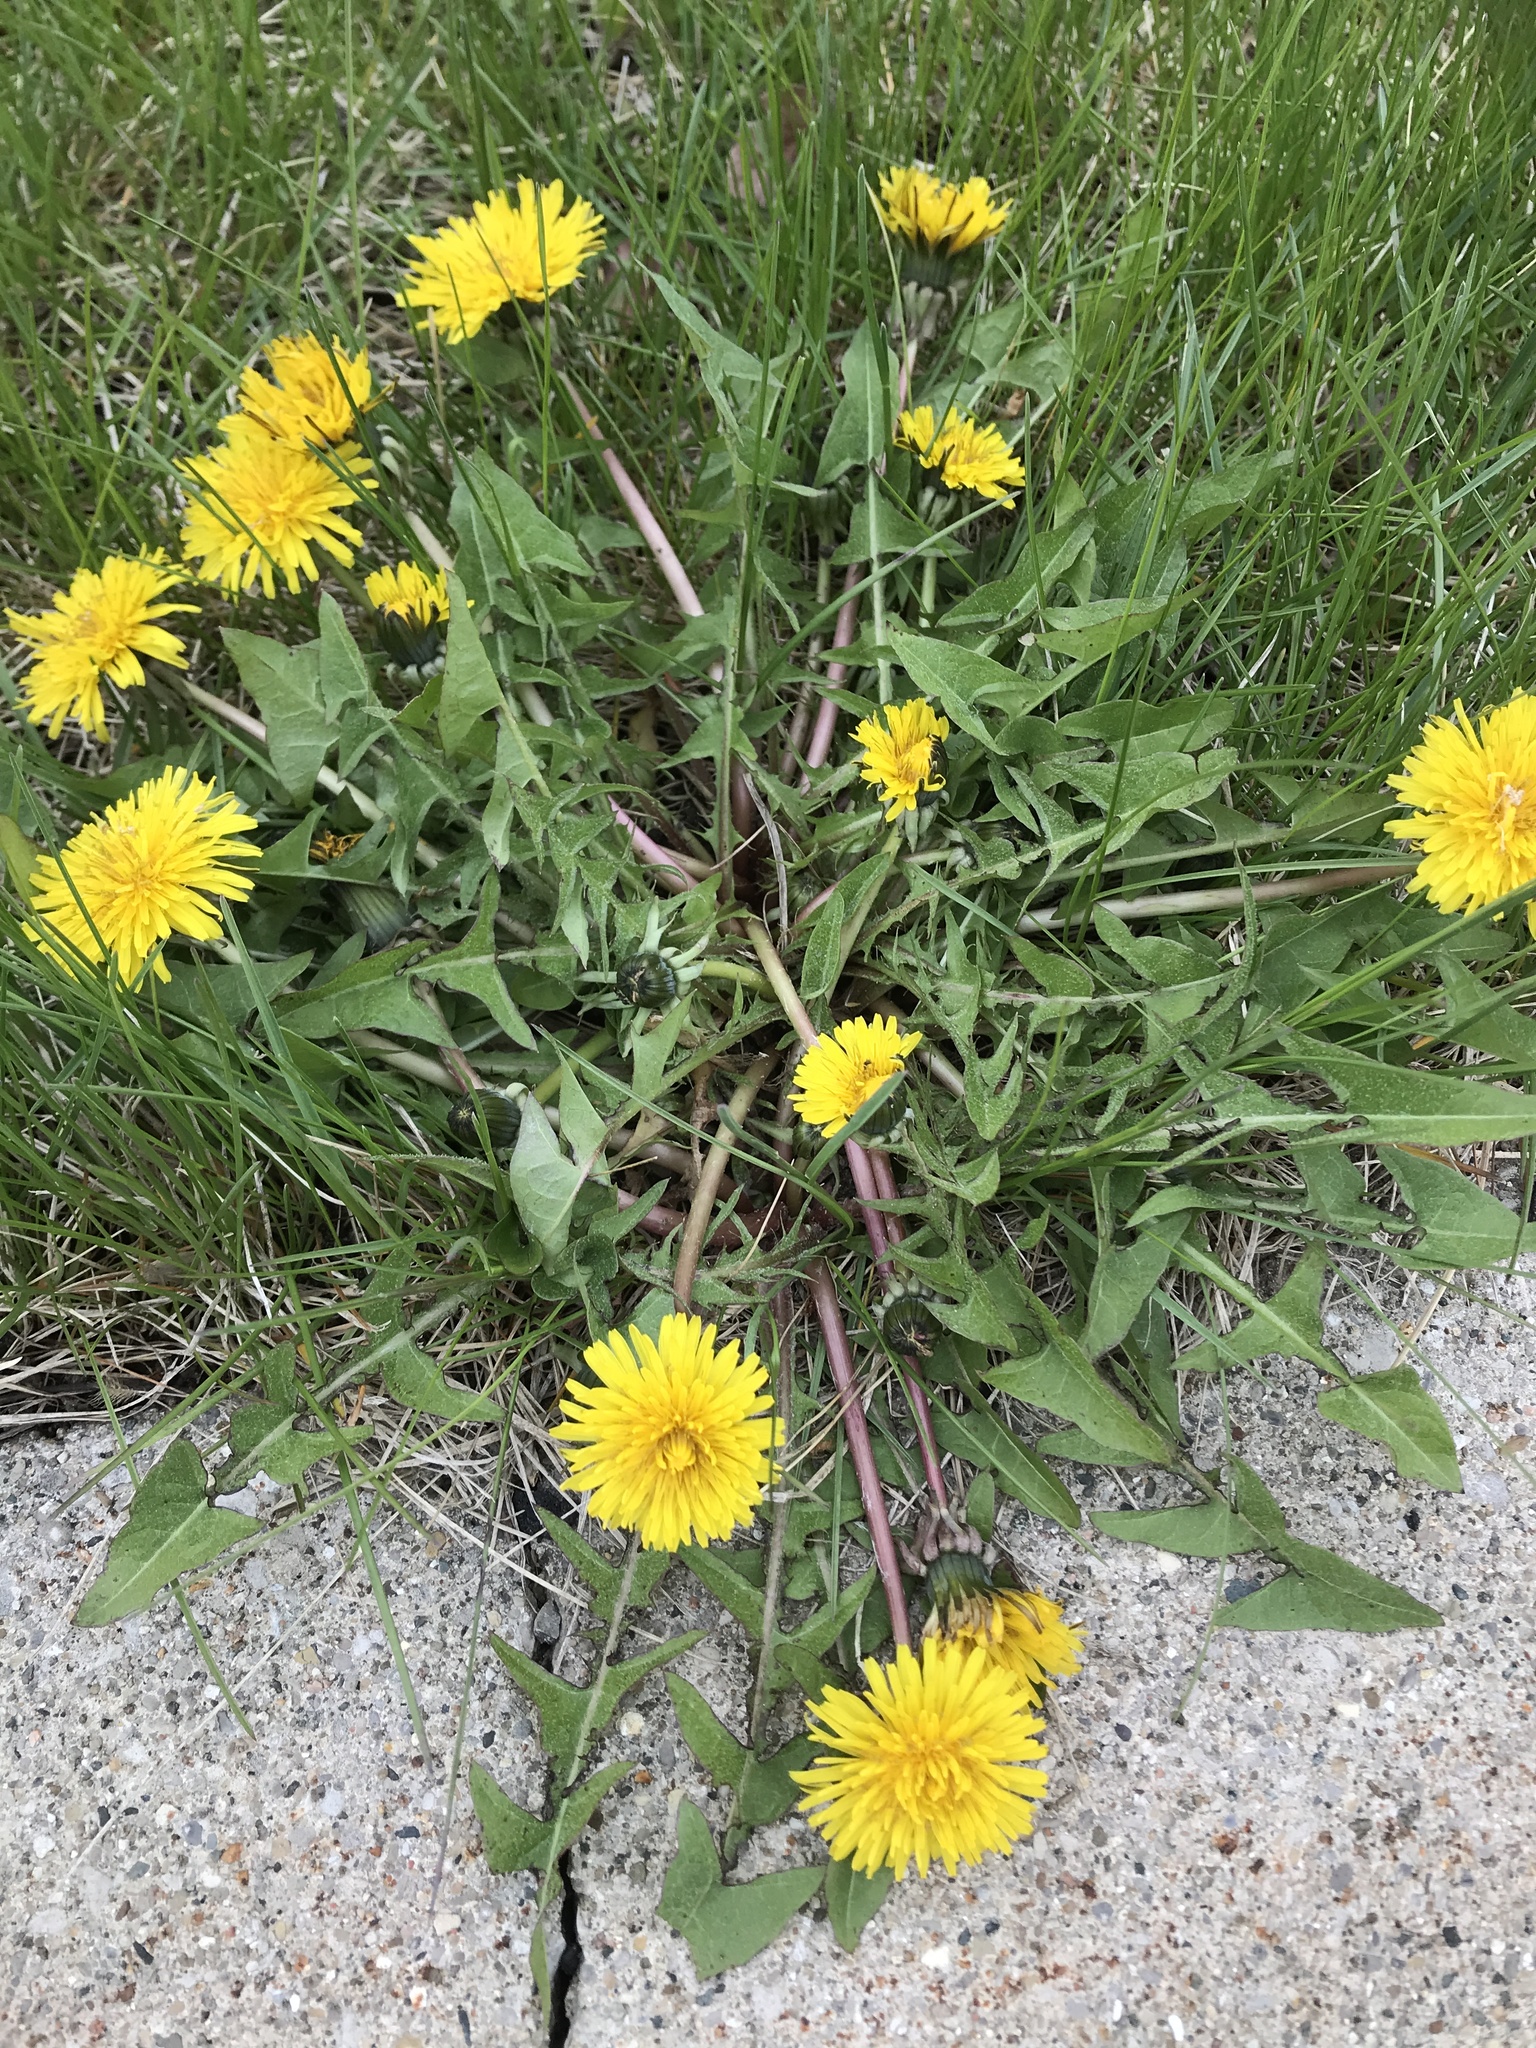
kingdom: Plantae
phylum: Tracheophyta
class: Magnoliopsida
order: Asterales
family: Asteraceae
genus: Taraxacum
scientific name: Taraxacum officinale
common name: Common dandelion
